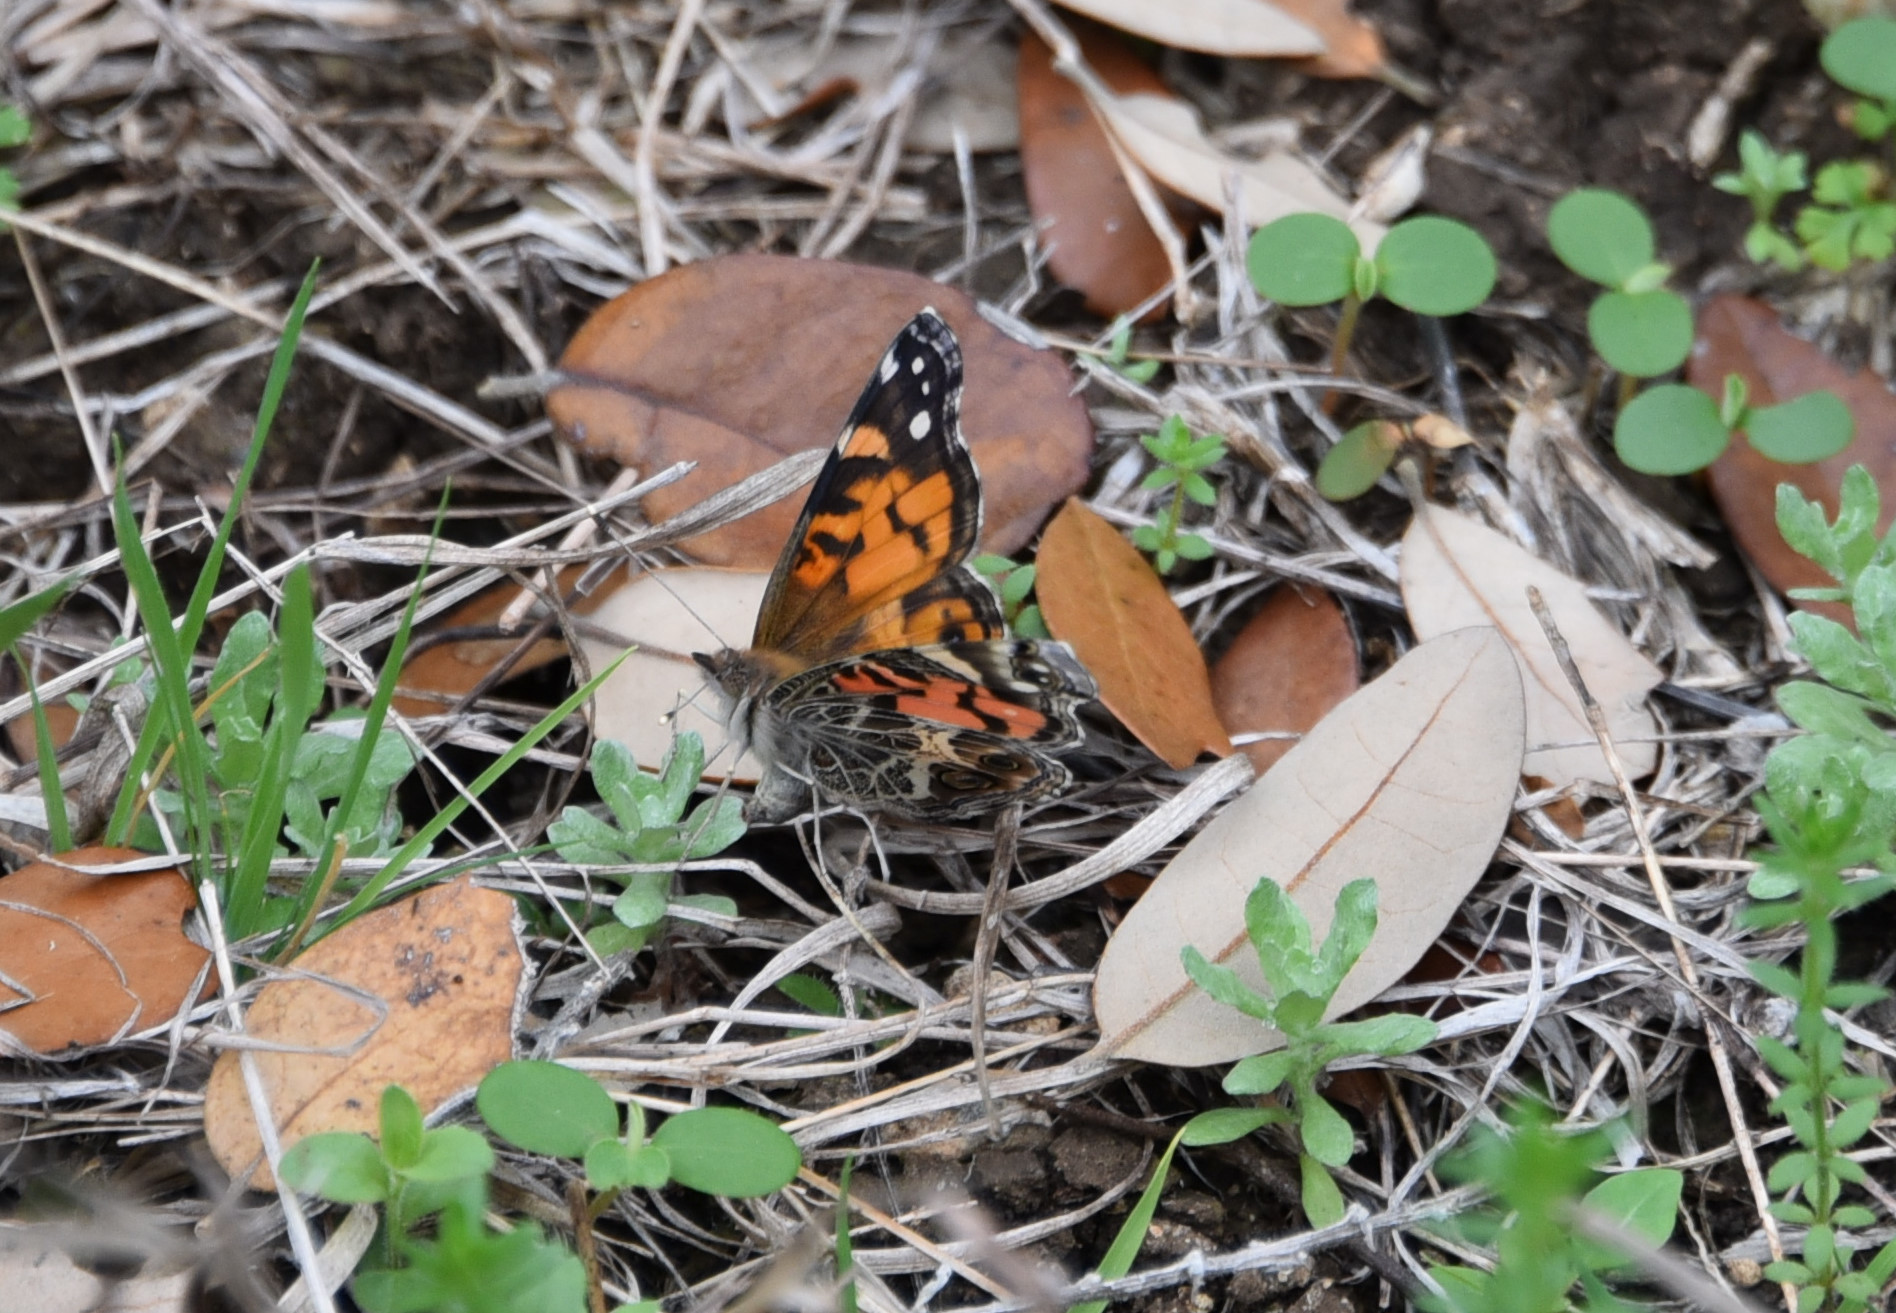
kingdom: Animalia
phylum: Arthropoda
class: Insecta
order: Lepidoptera
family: Nymphalidae
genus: Vanessa
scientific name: Vanessa virginiensis
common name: American lady
